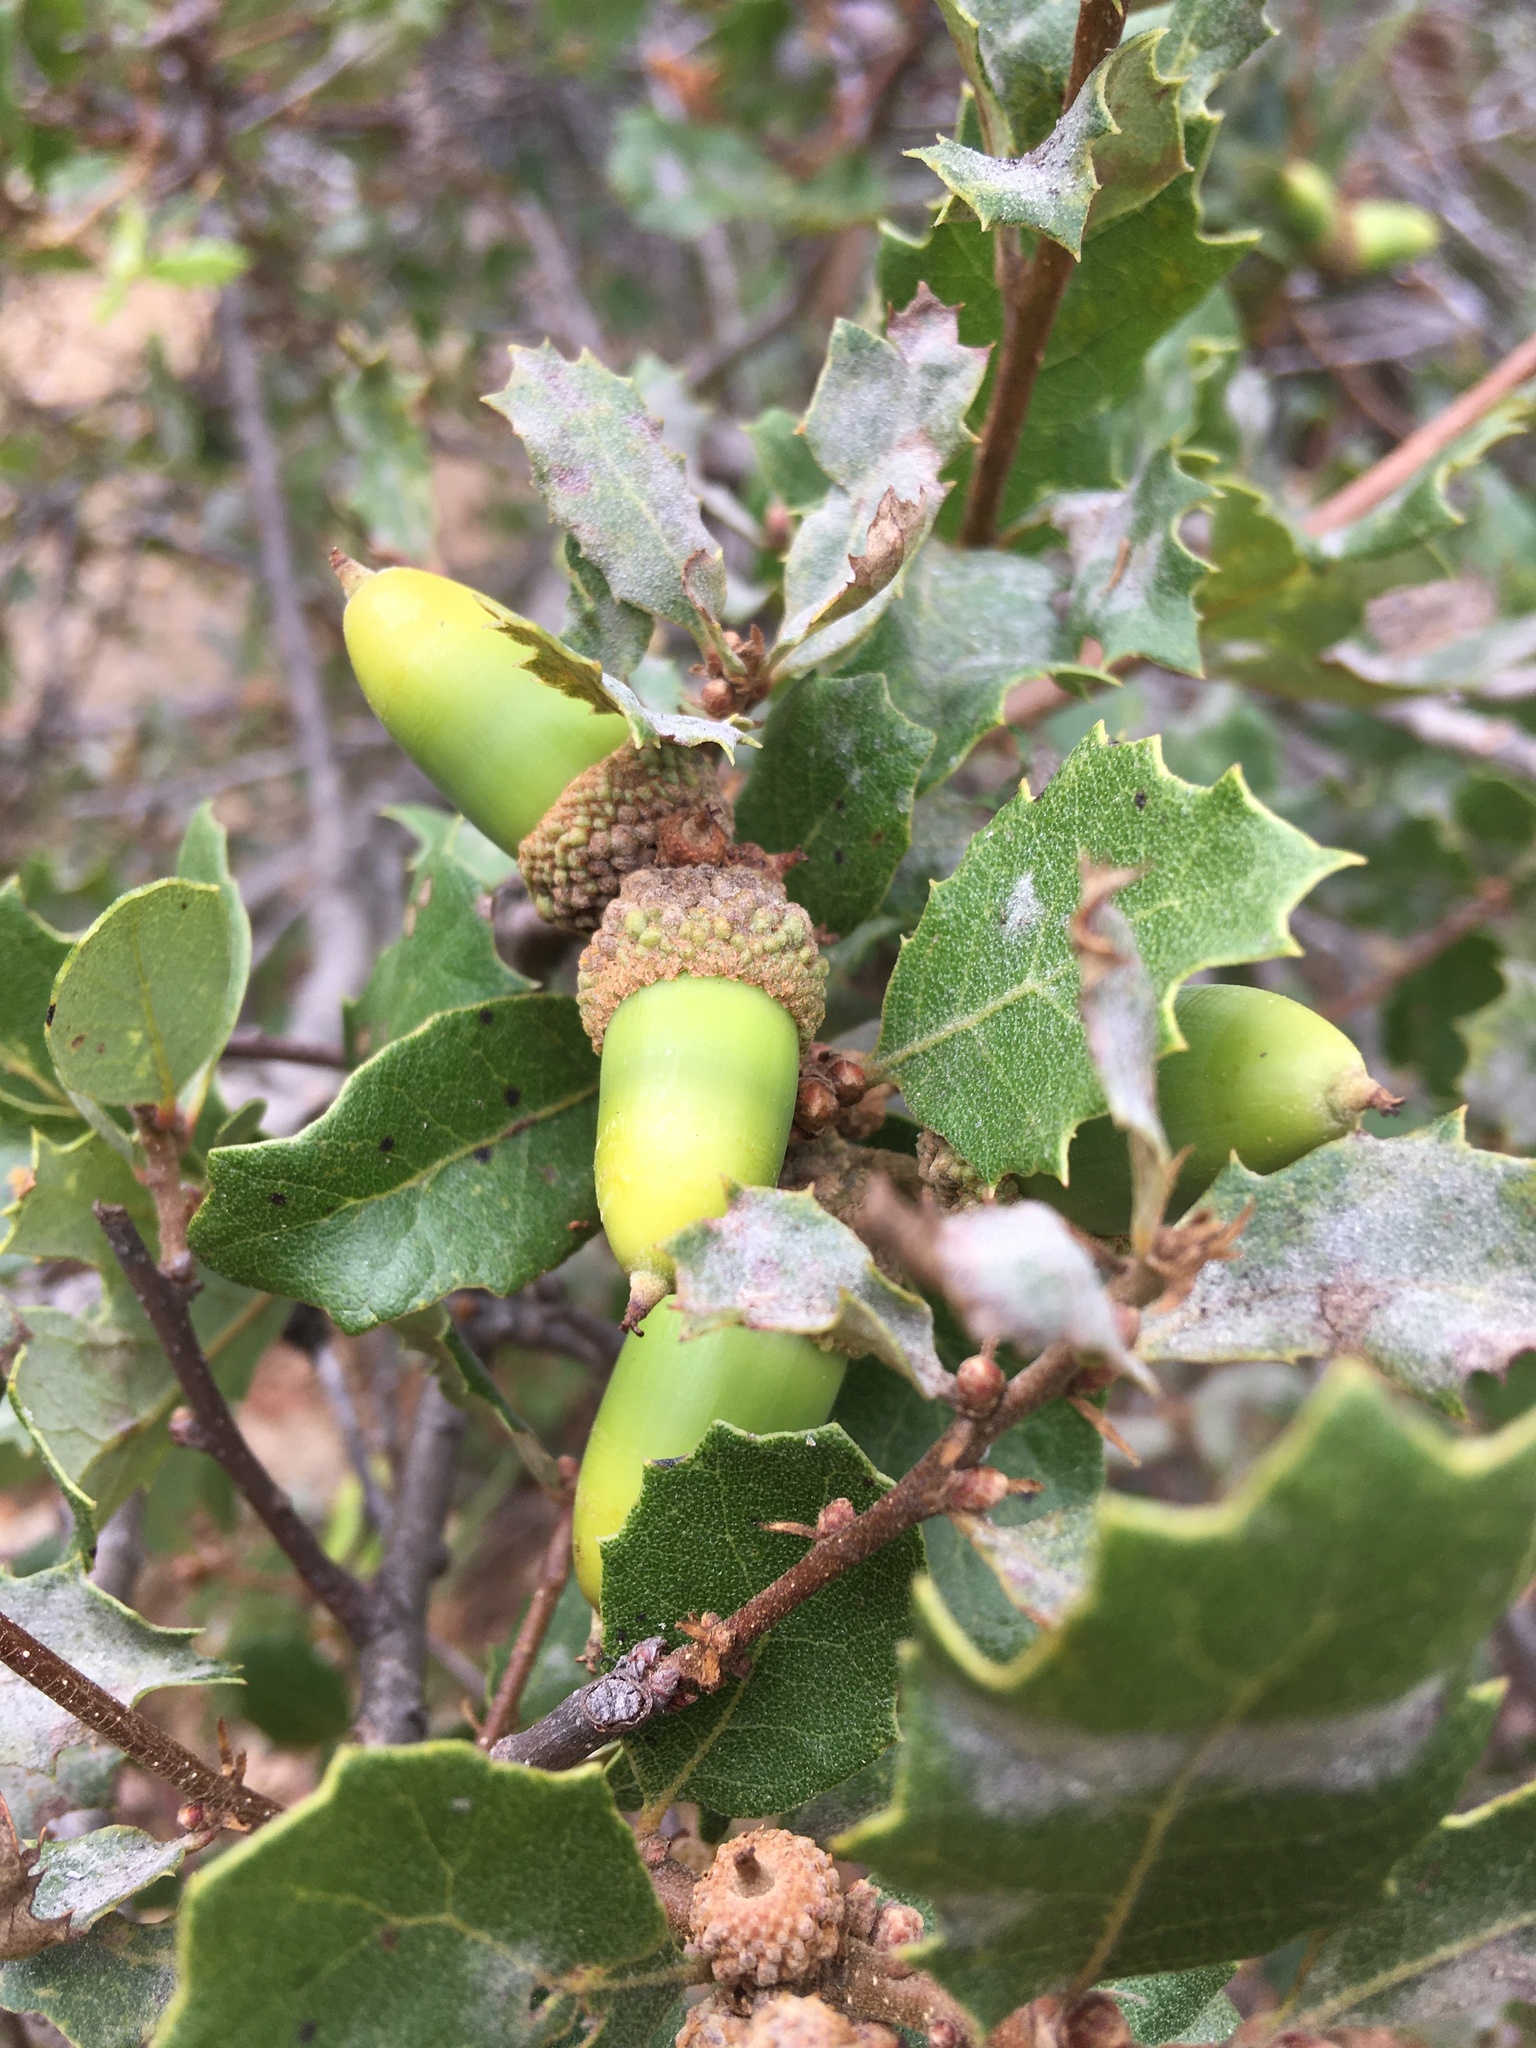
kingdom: Plantae
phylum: Tracheophyta
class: Magnoliopsida
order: Fagales
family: Fagaceae
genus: Quercus
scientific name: Quercus berberidifolia
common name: California scrub oak
